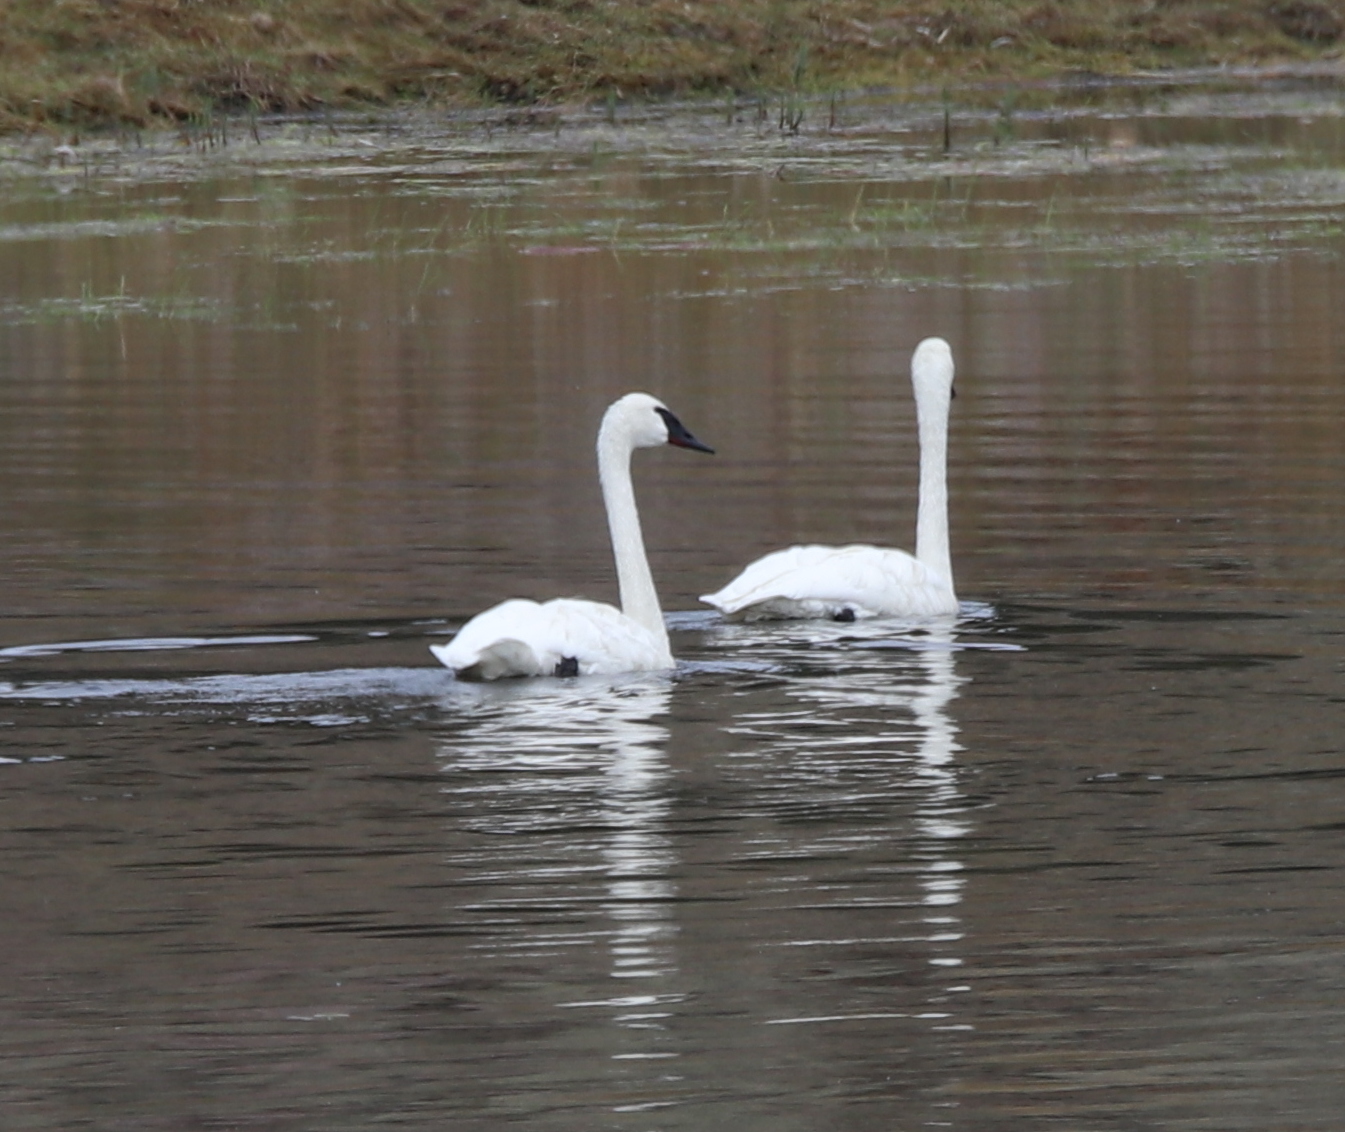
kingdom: Animalia
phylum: Chordata
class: Aves
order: Anseriformes
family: Anatidae
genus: Cygnus
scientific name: Cygnus buccinator
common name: Trumpeter swan
